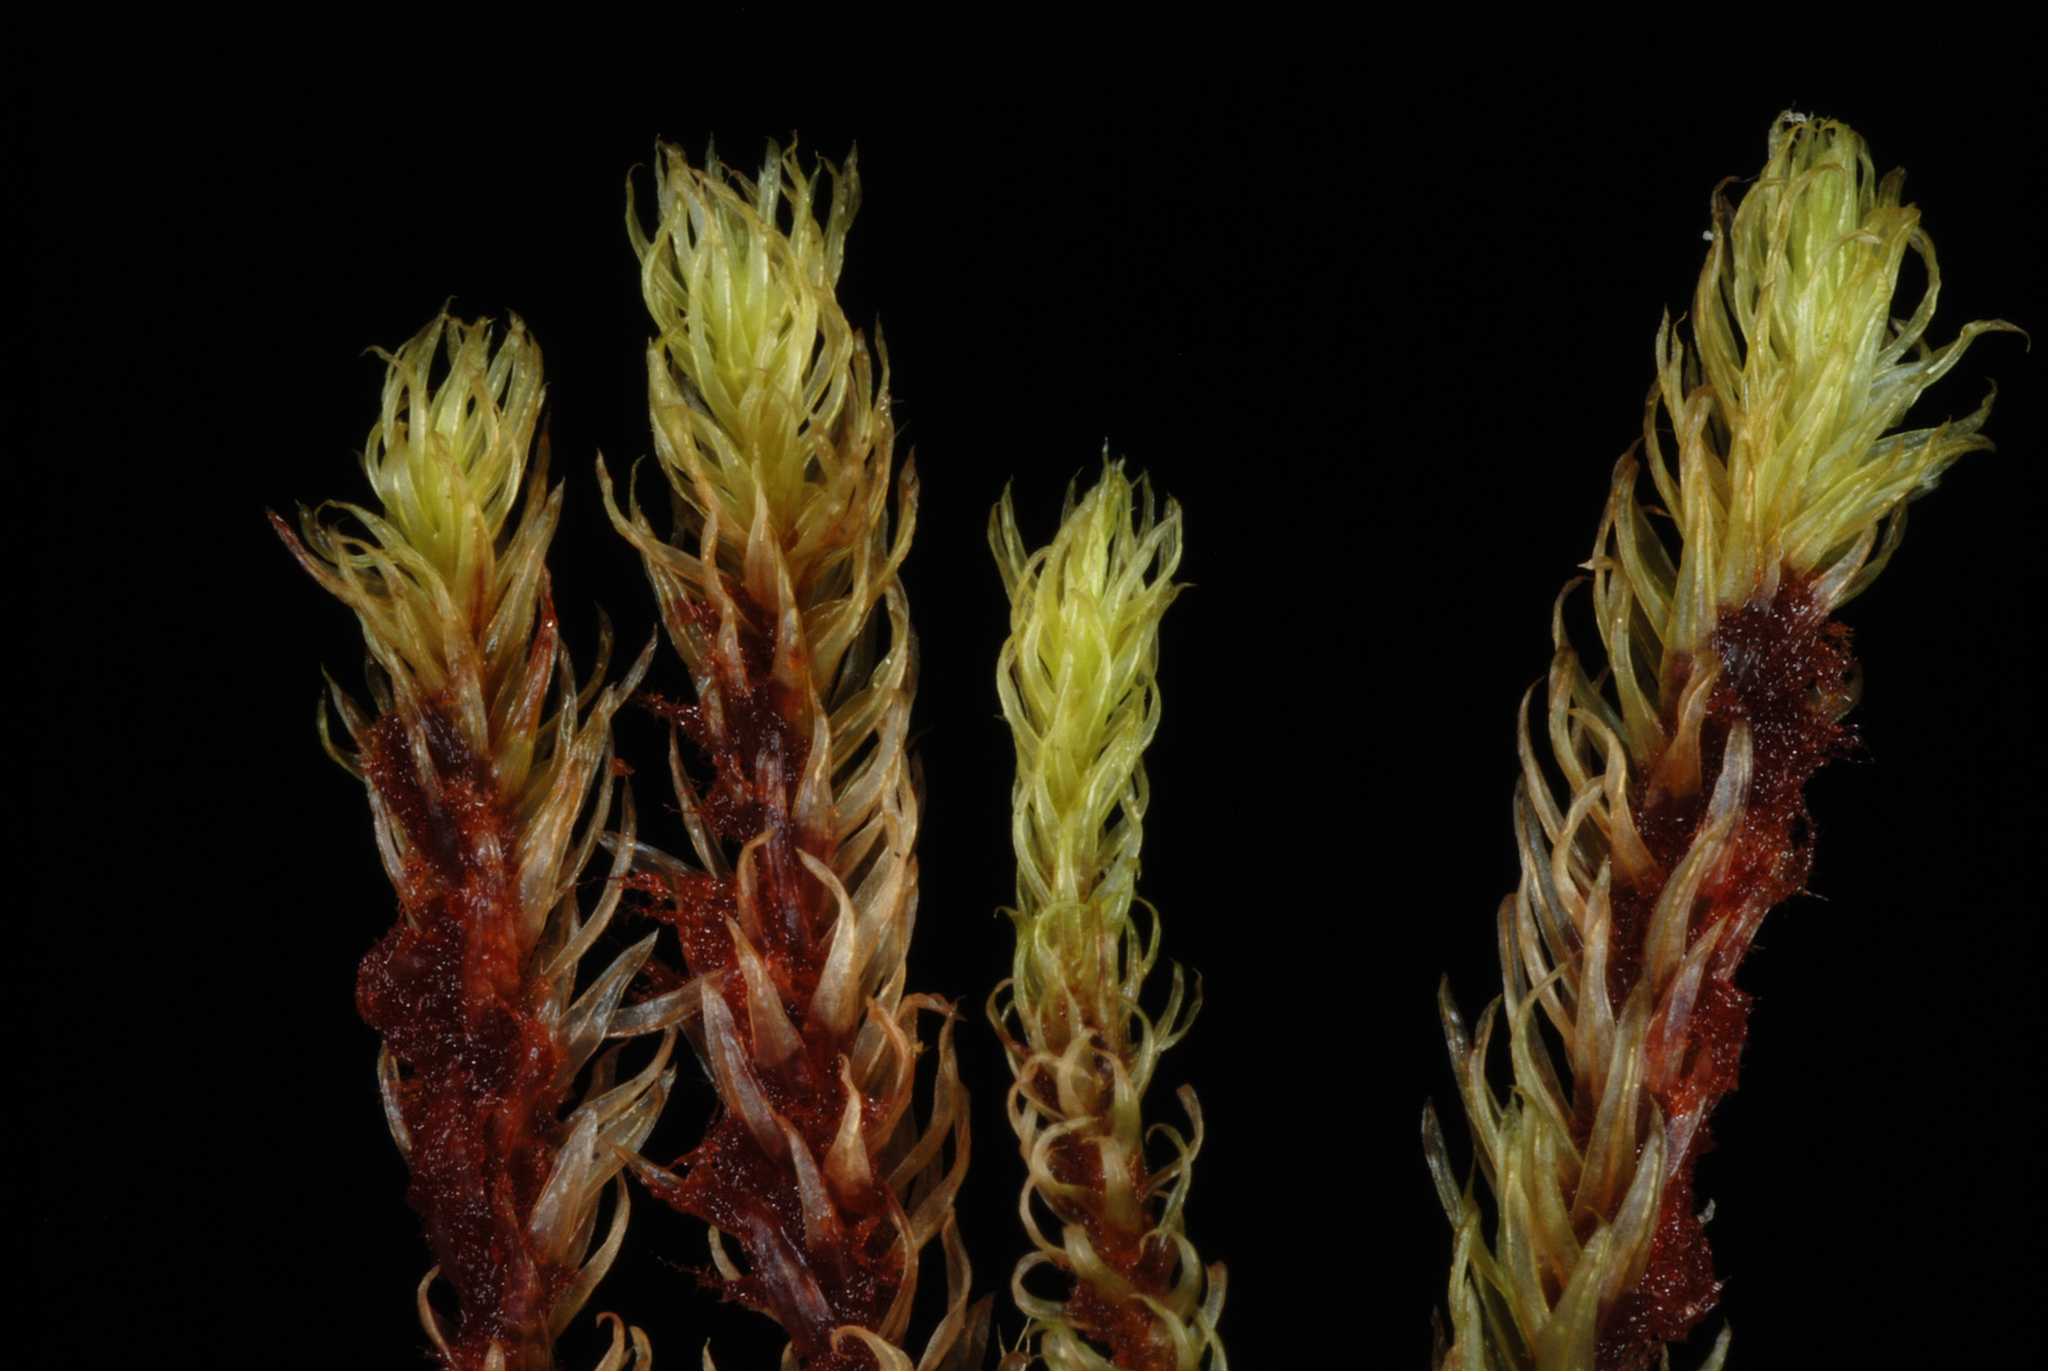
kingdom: Plantae
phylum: Bryophyta
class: Bryopsida
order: Aulacomniales
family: Aulacomniaceae
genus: Aulacomnium
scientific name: Aulacomnium palustre
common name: Bog groove-moss
